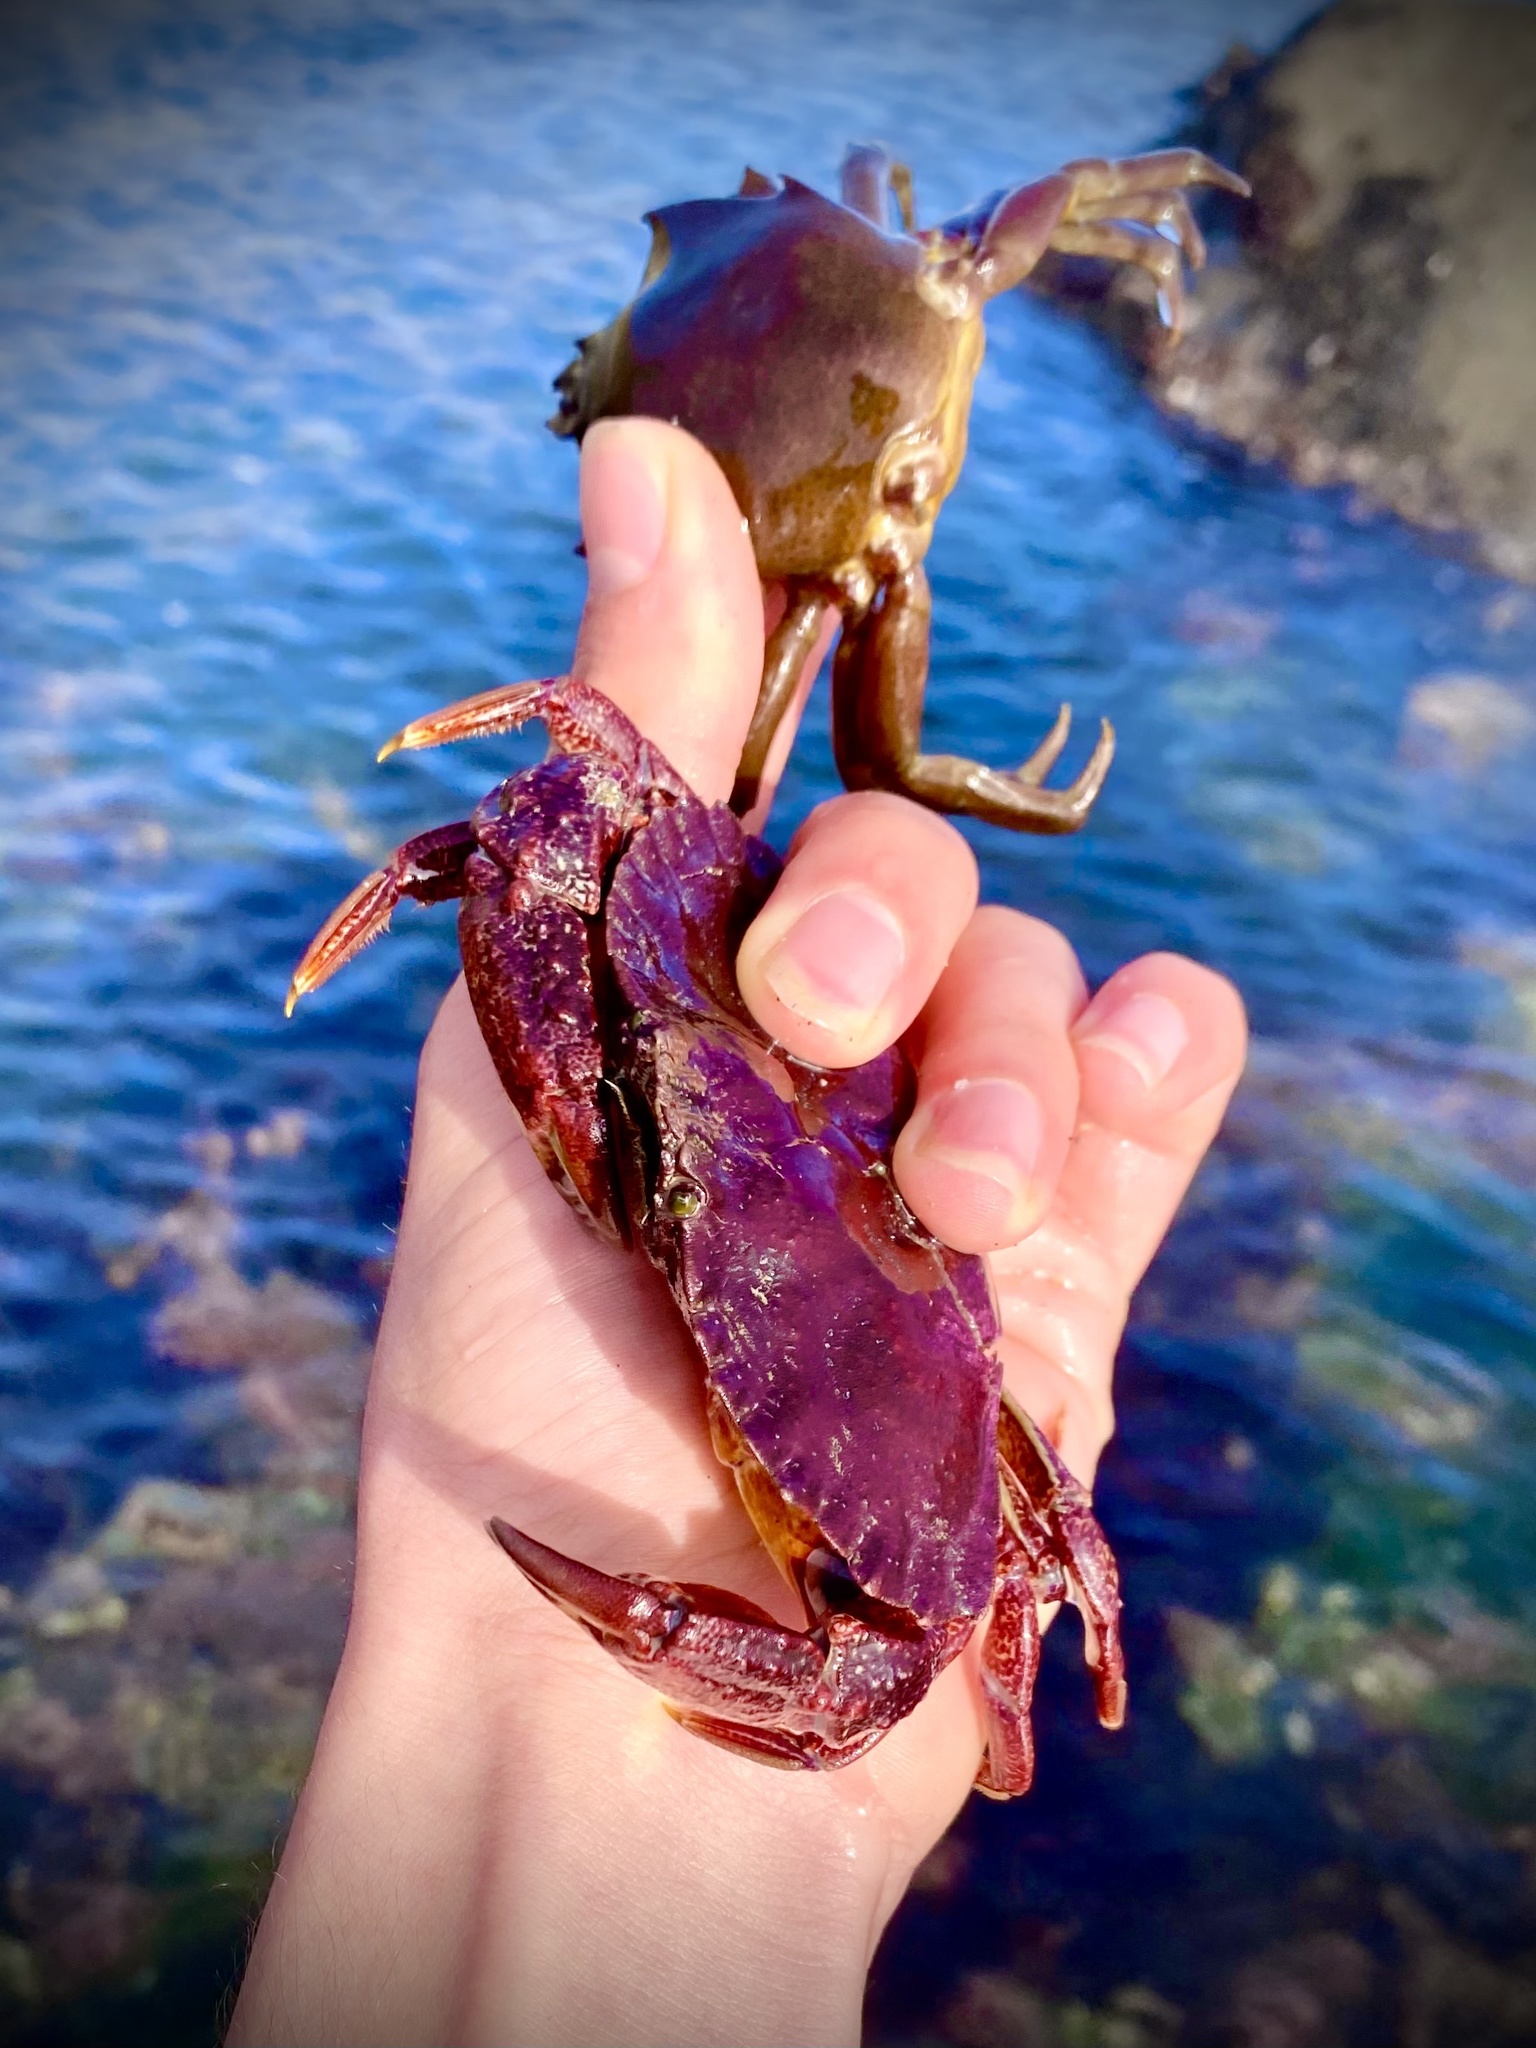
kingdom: Animalia
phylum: Arthropoda
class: Malacostraca
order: Decapoda
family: Epialtidae
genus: Pugettia
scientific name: Pugettia producta
